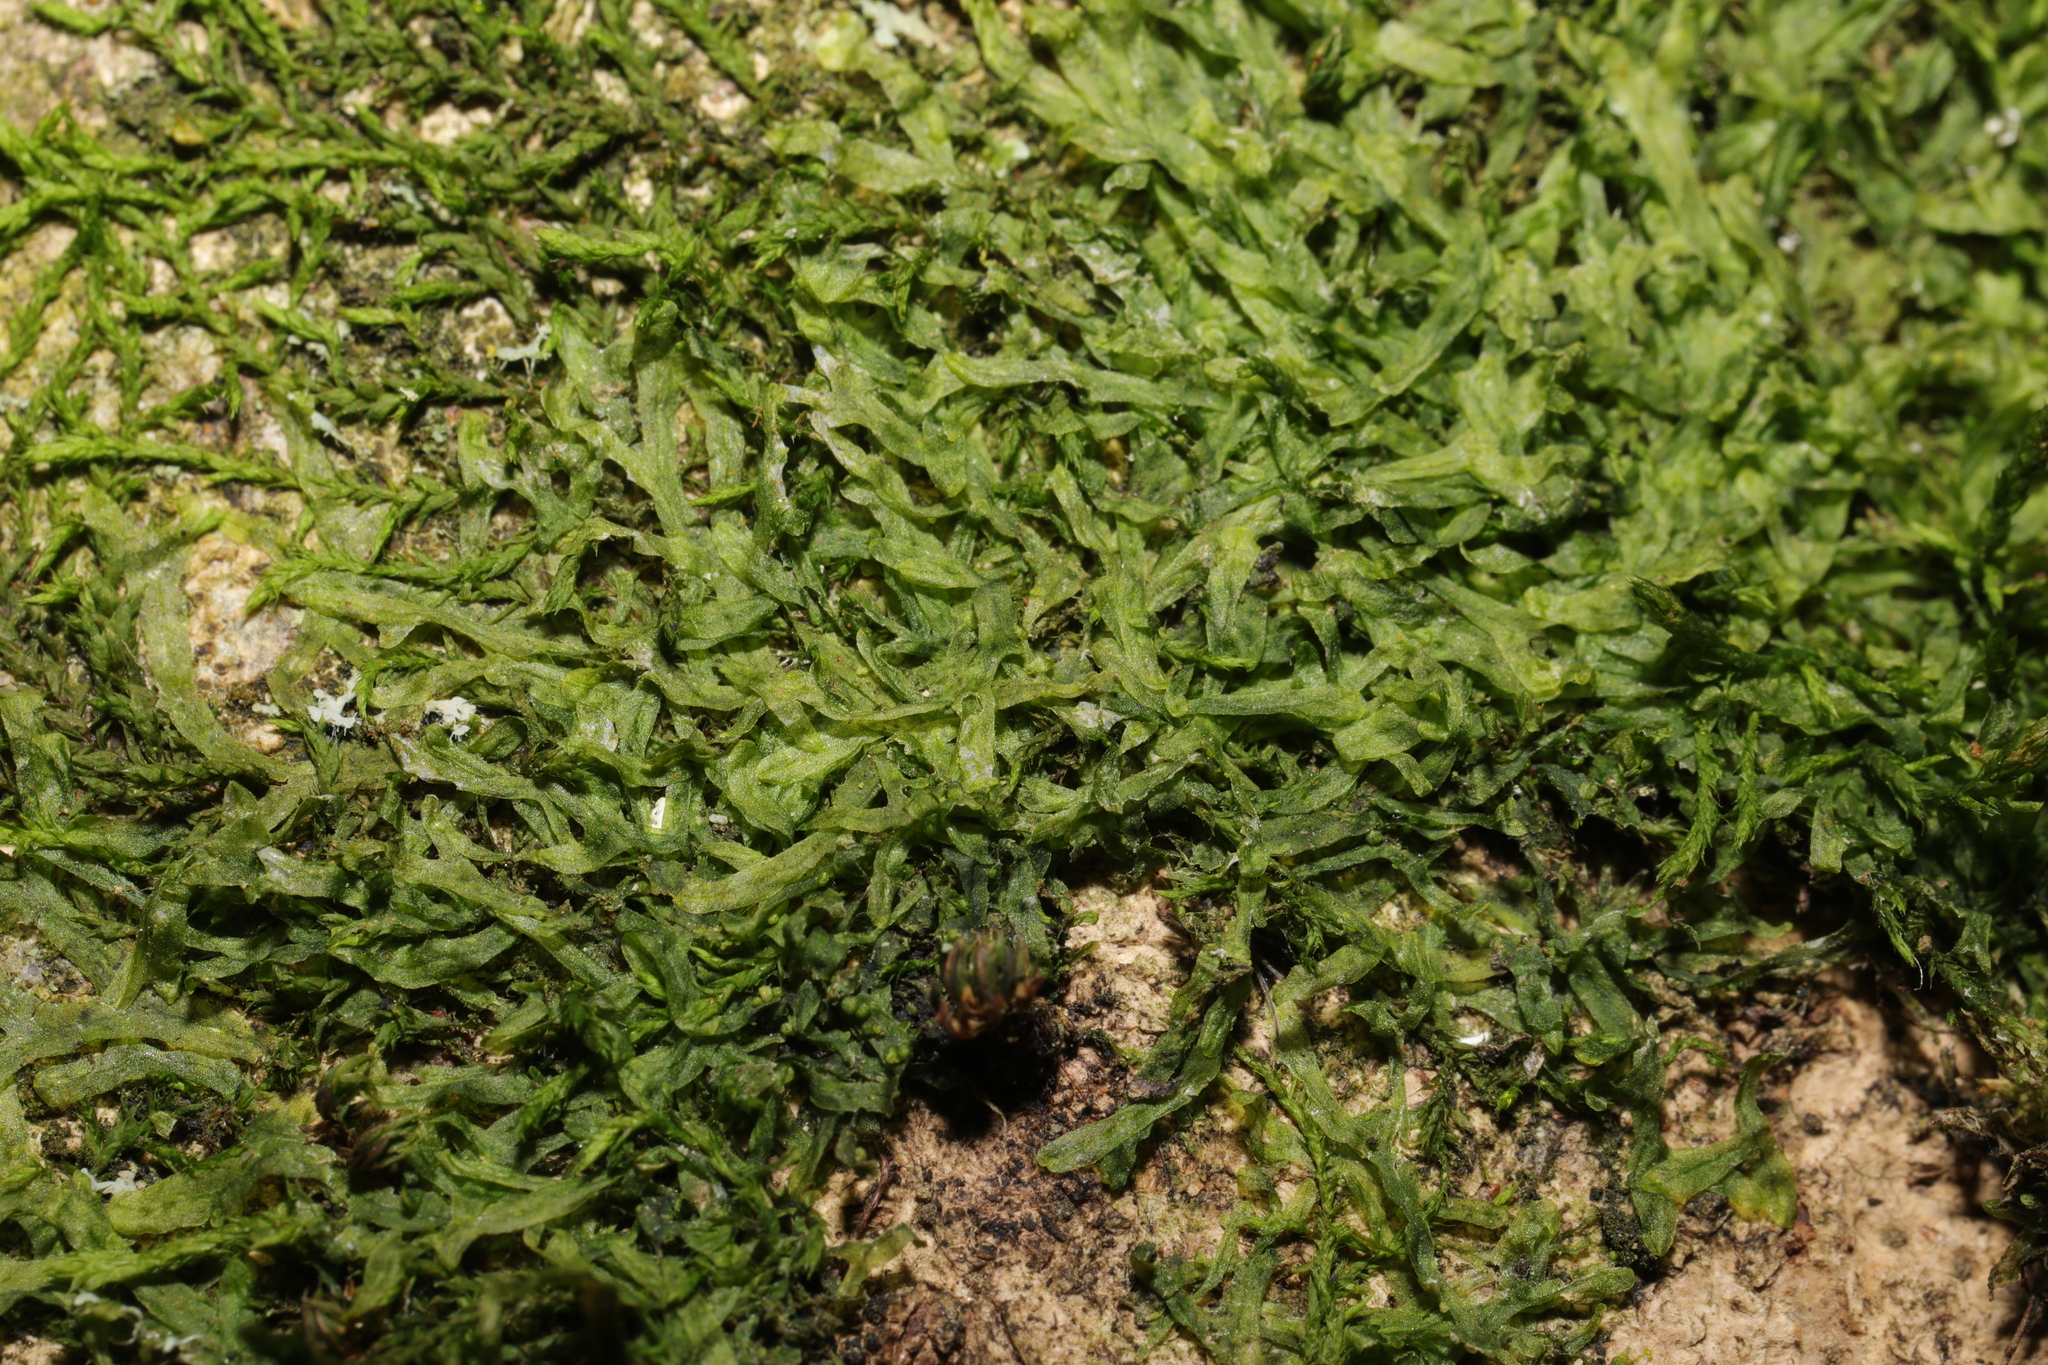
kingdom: Plantae
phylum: Marchantiophyta
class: Jungermanniopsida
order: Metzgeriales
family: Metzgeriaceae
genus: Metzgeria
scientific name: Metzgeria furcata
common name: Forked veilwort
